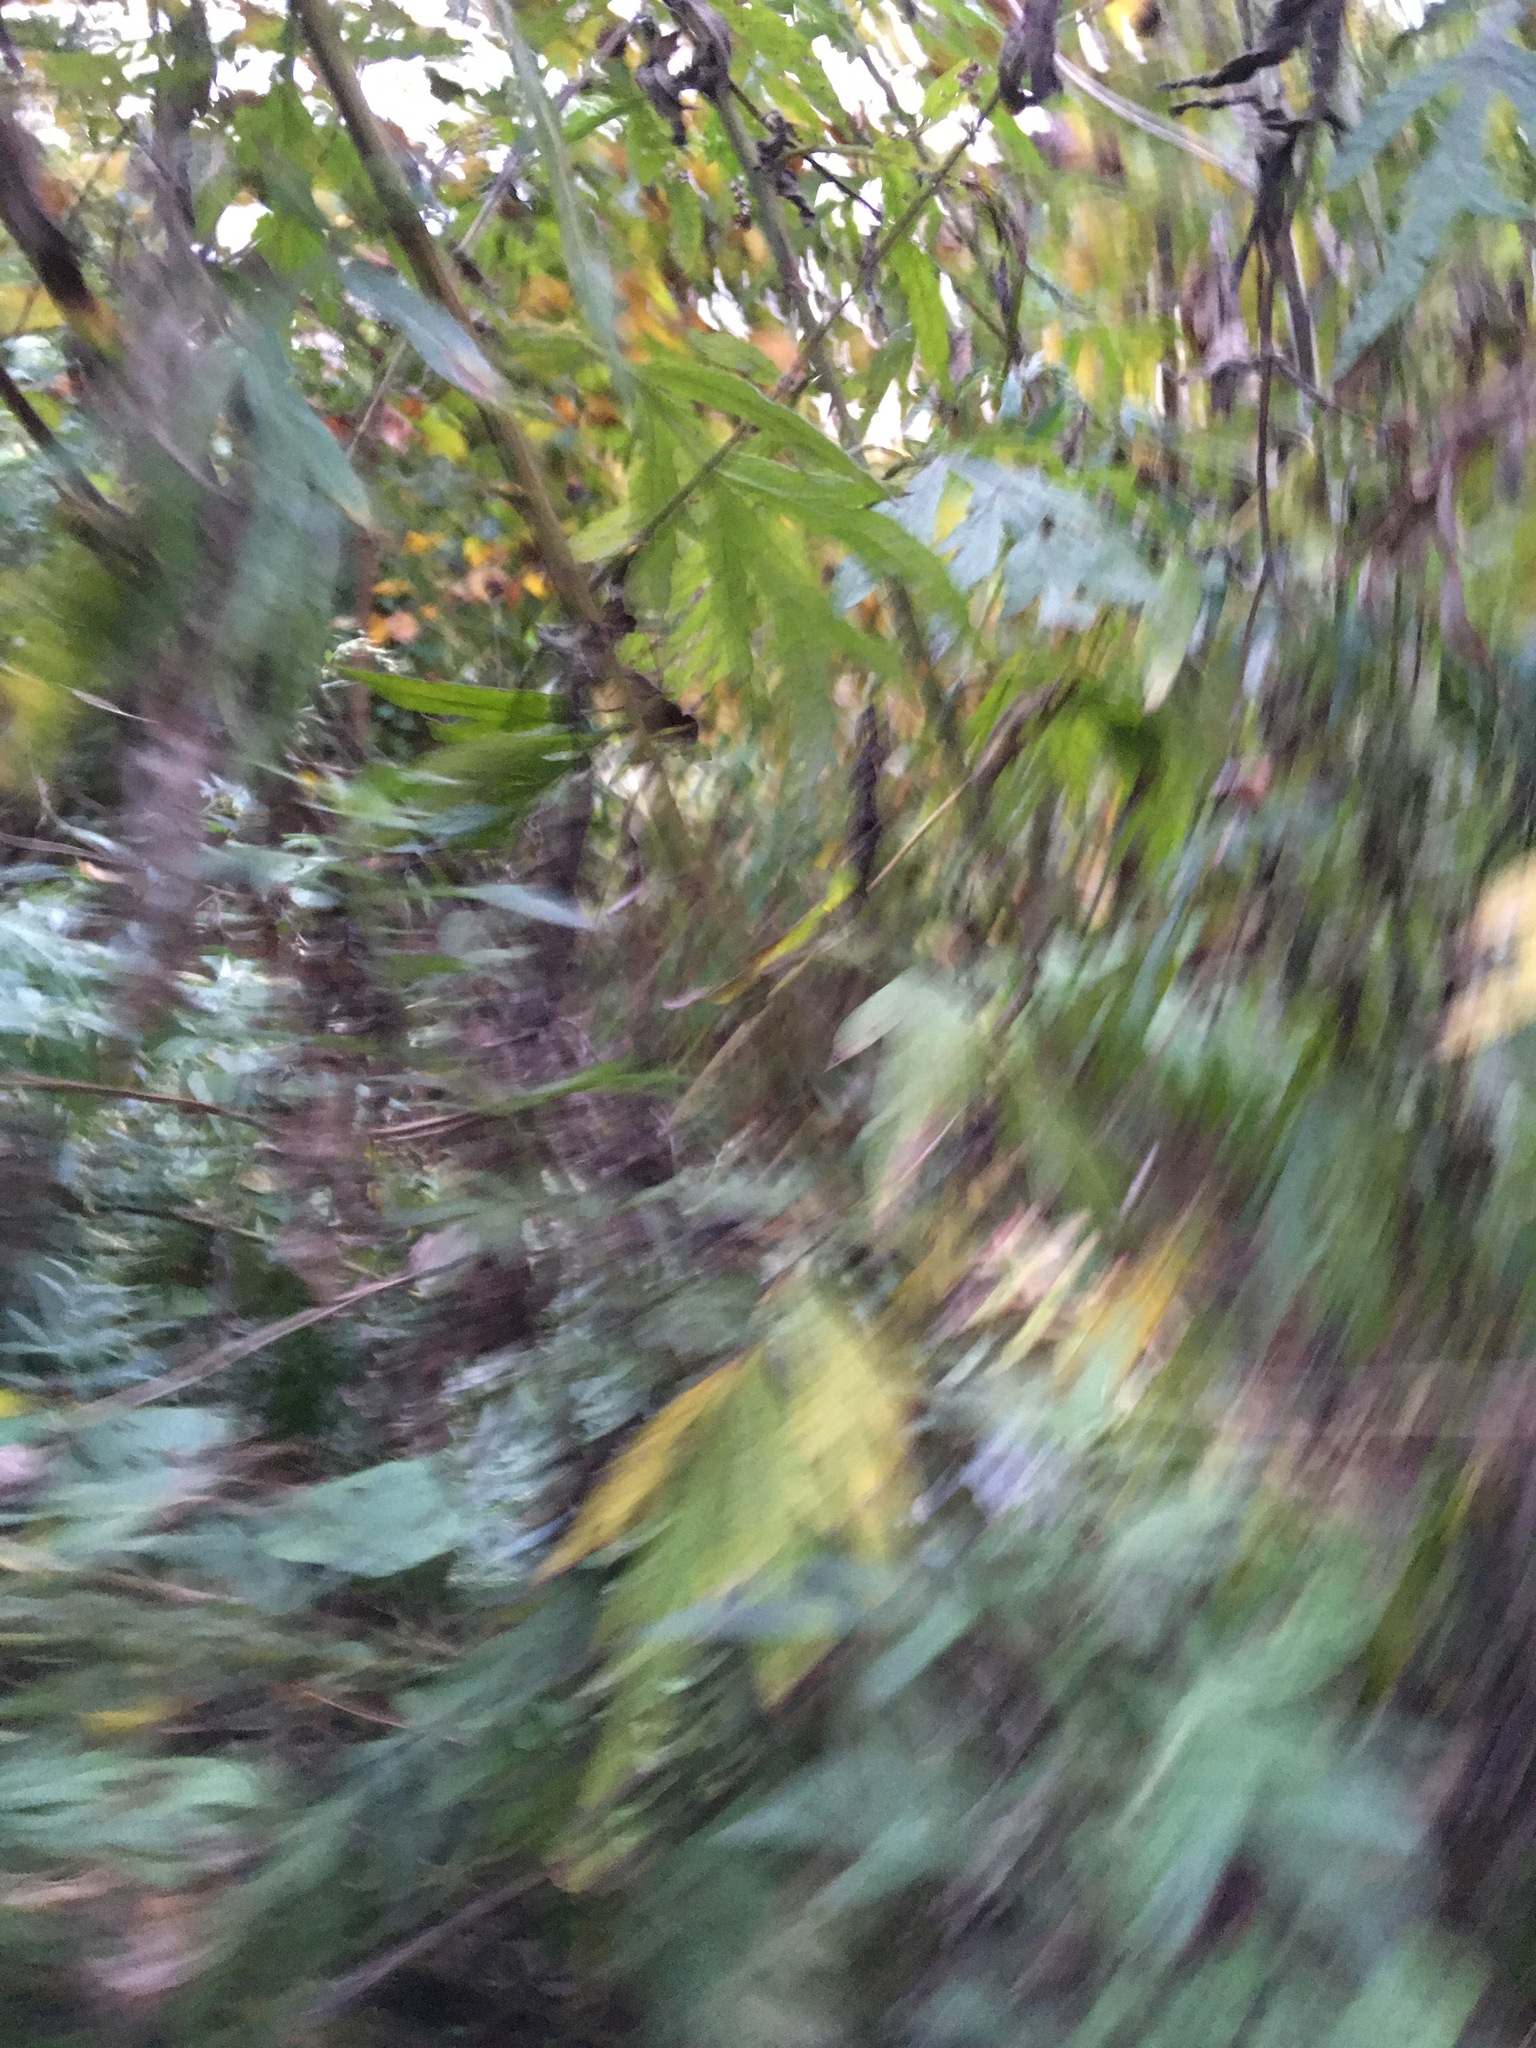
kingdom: Plantae
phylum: Tracheophyta
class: Magnoliopsida
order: Asterales
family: Asteraceae
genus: Artemisia
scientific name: Artemisia vulgaris
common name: Mugwort
